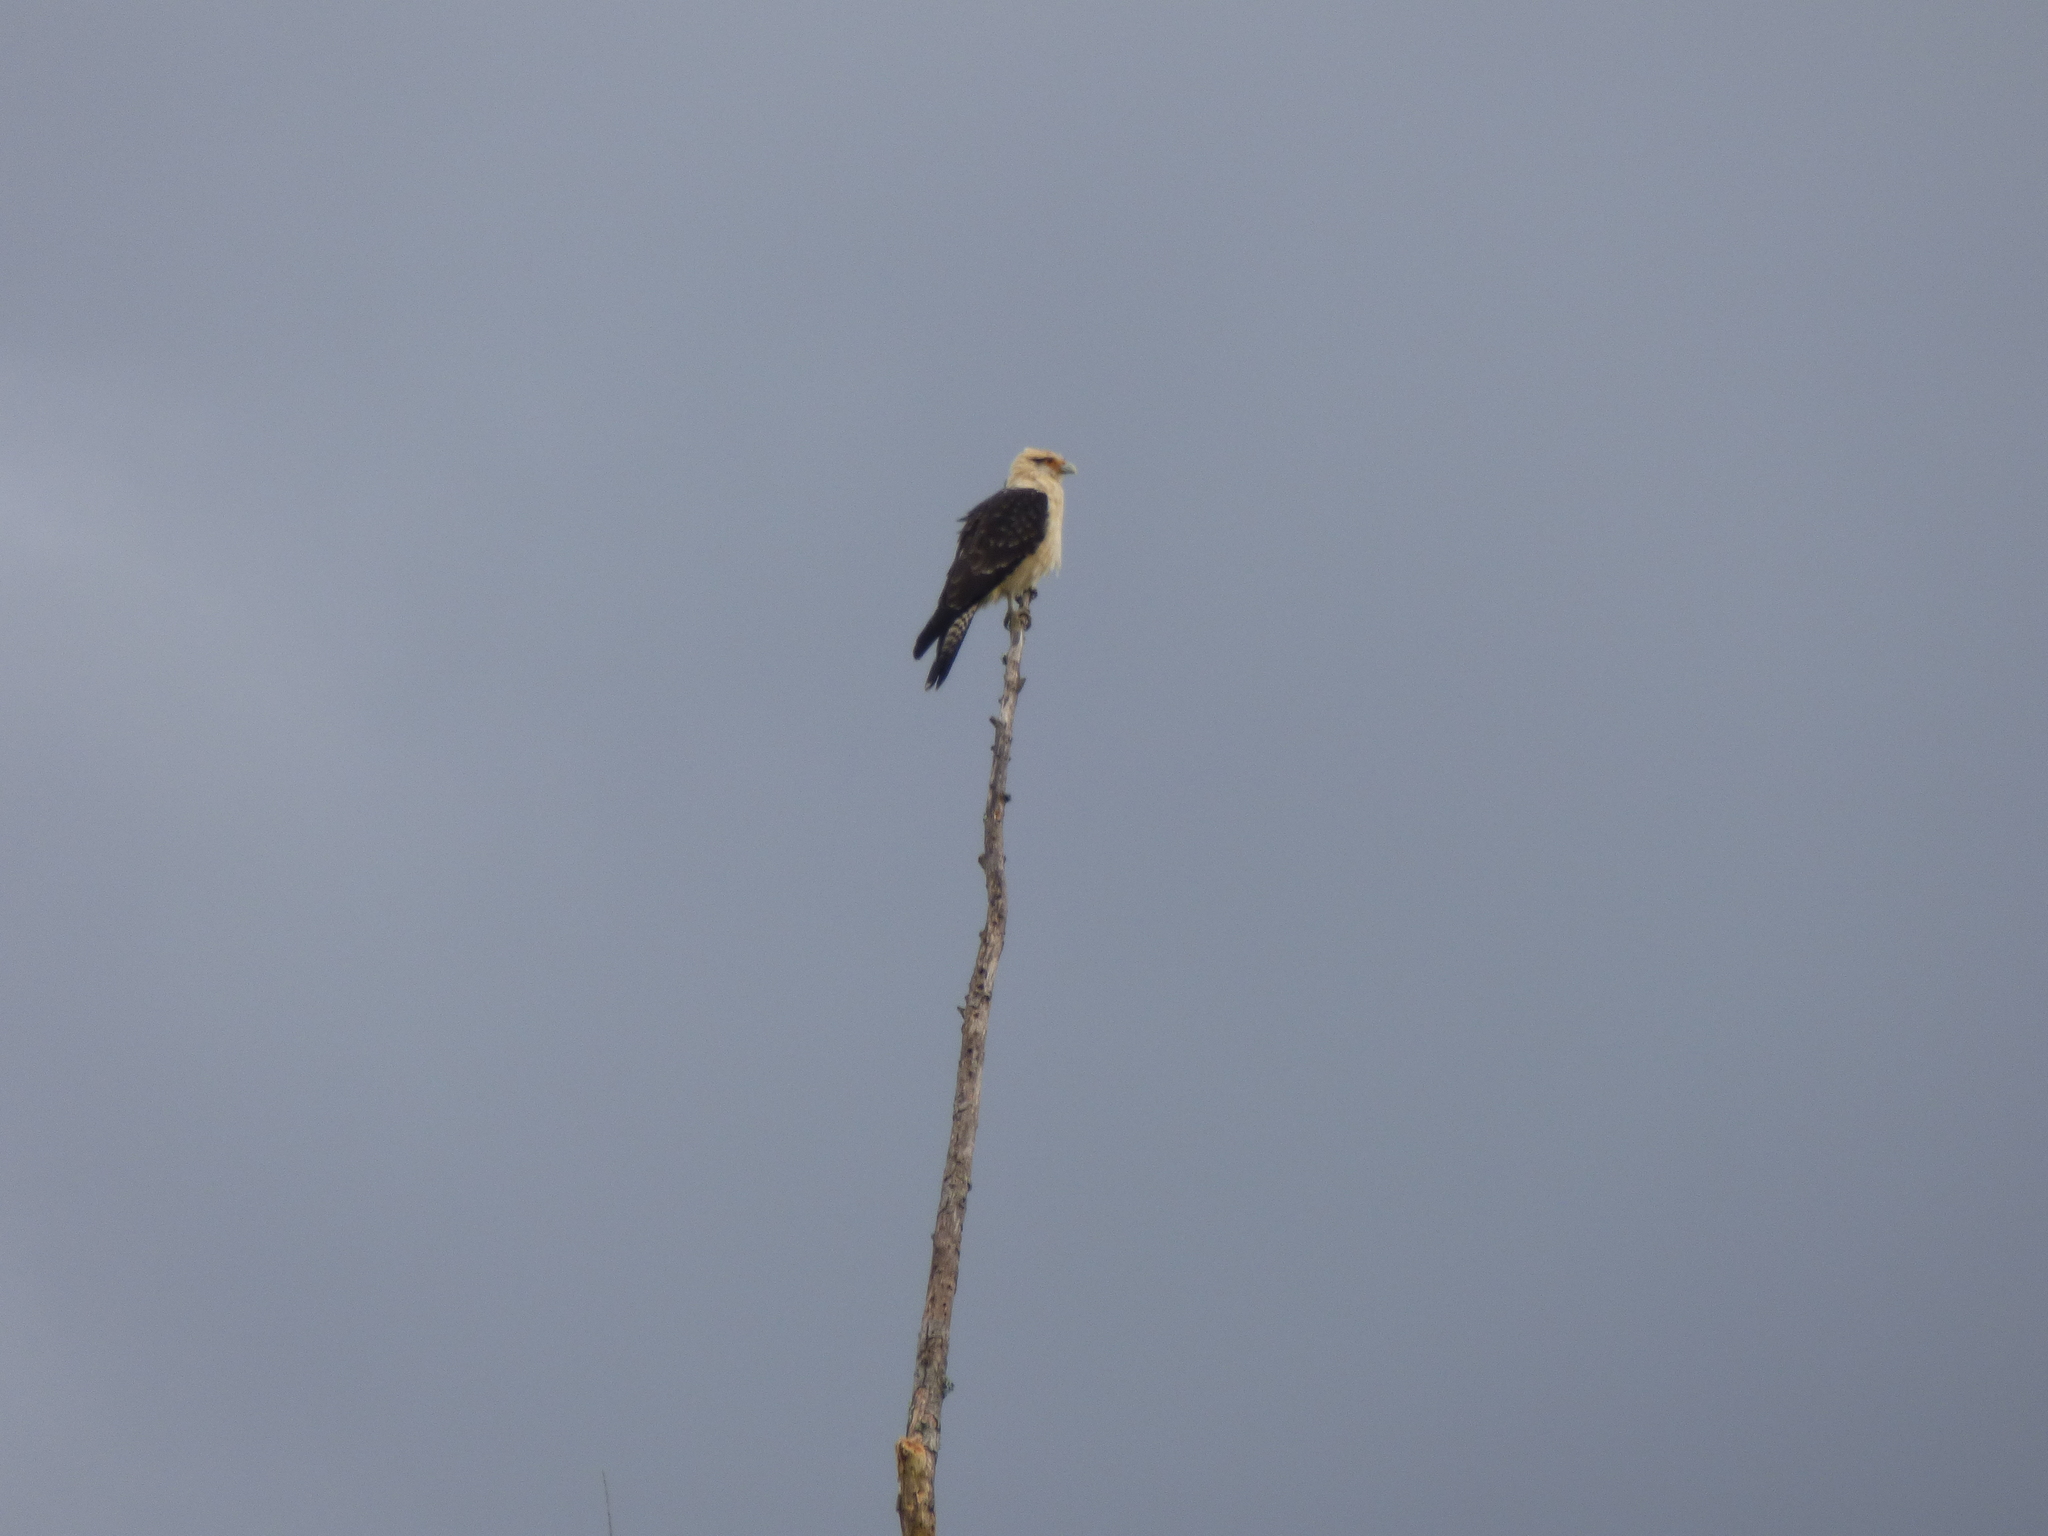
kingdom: Animalia
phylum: Chordata
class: Aves
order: Falconiformes
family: Falconidae
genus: Daptrius
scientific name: Daptrius
